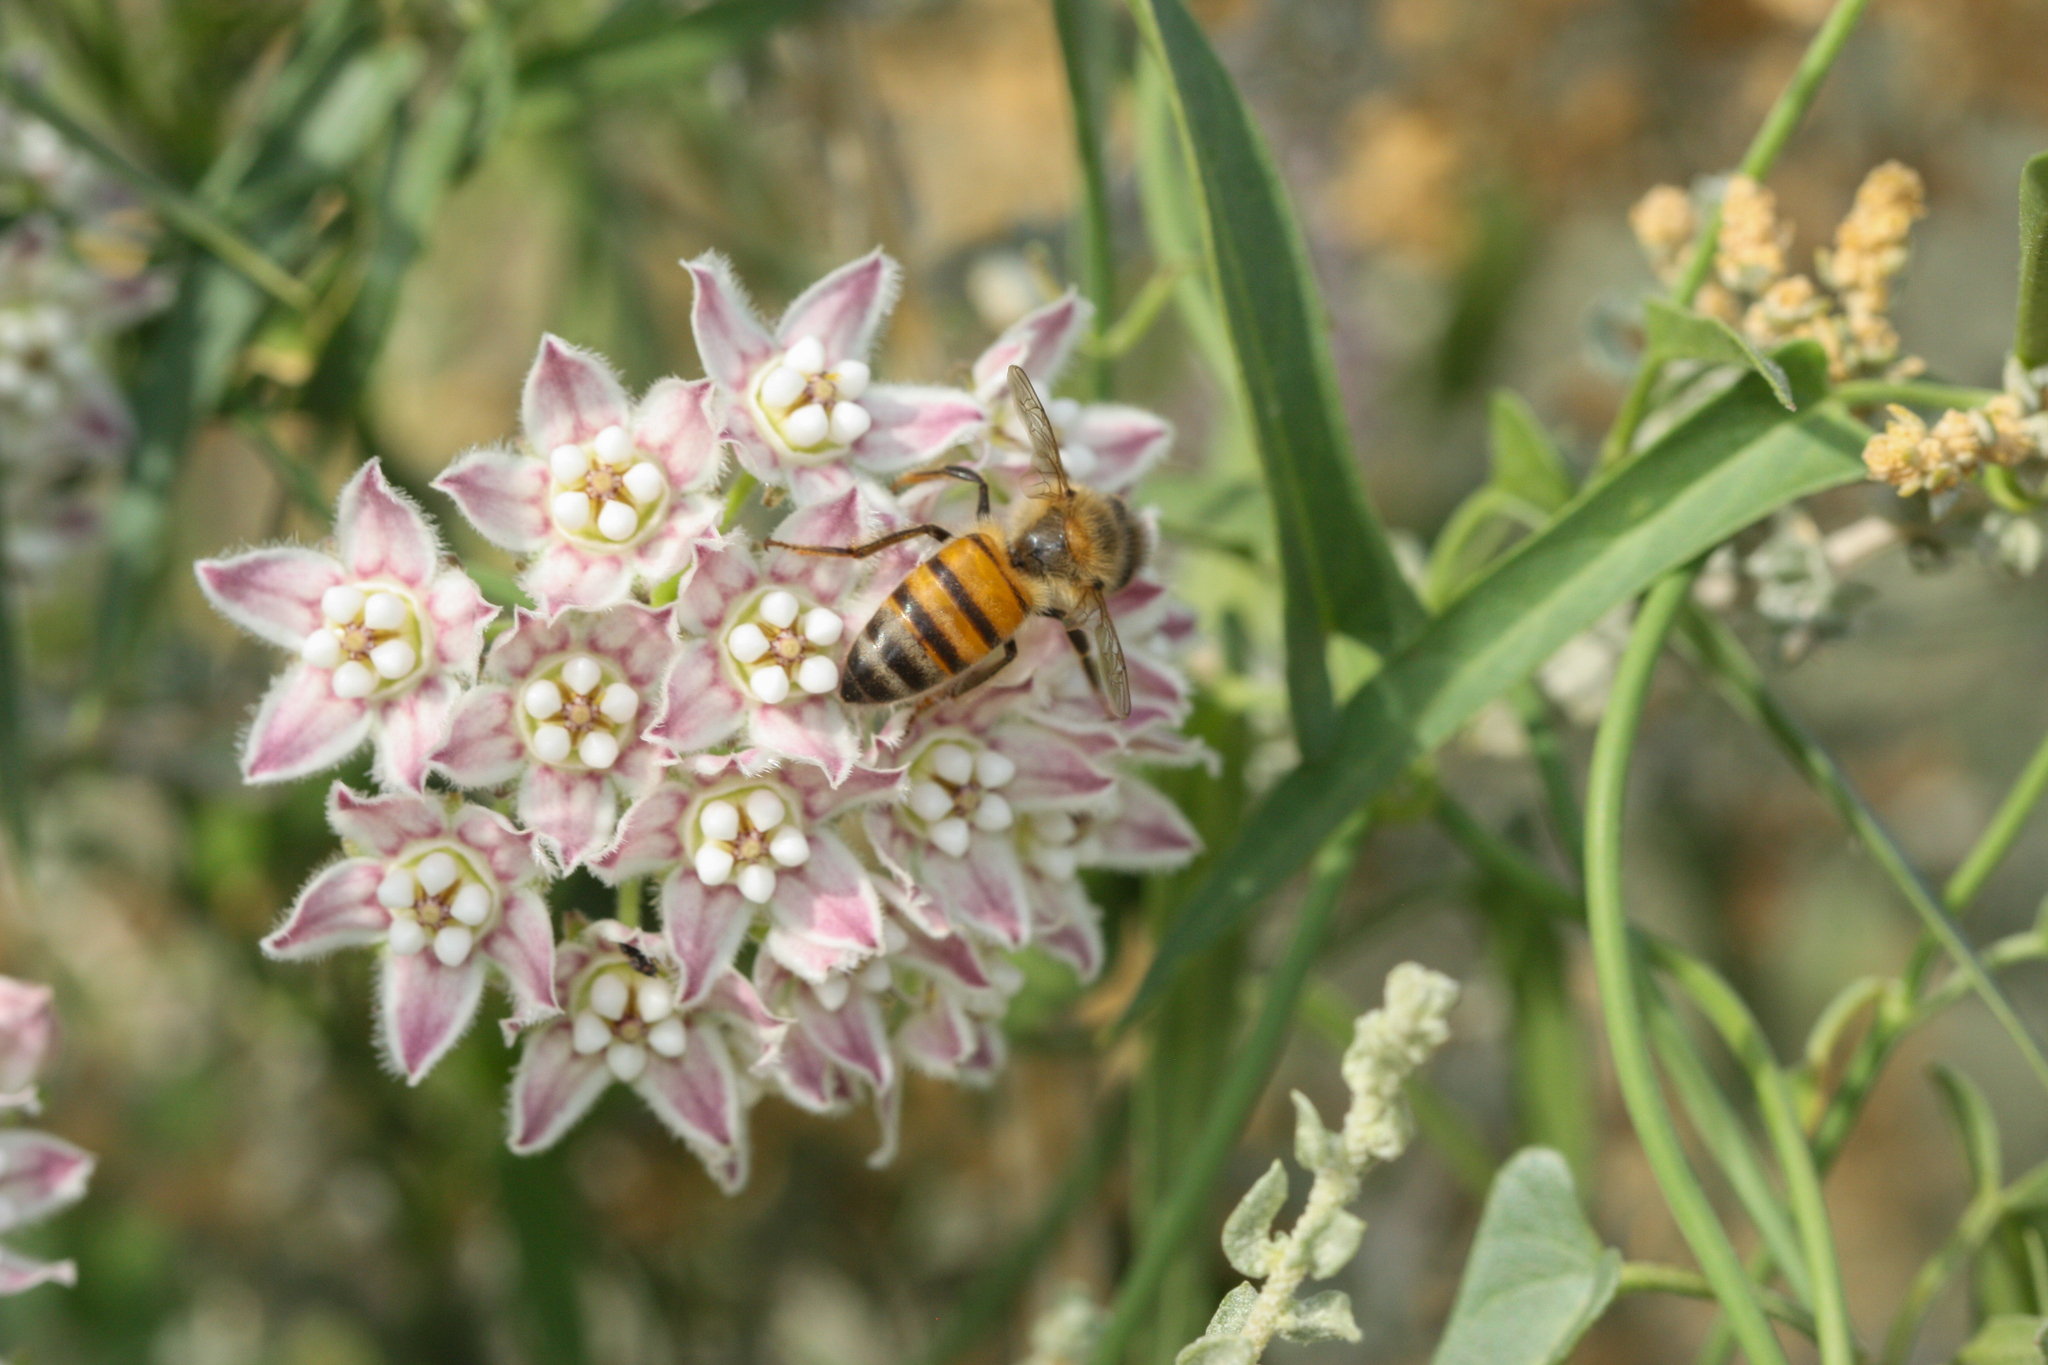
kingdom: Animalia
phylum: Arthropoda
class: Insecta
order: Hymenoptera
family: Apidae
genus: Apis
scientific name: Apis mellifera
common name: Honey bee
